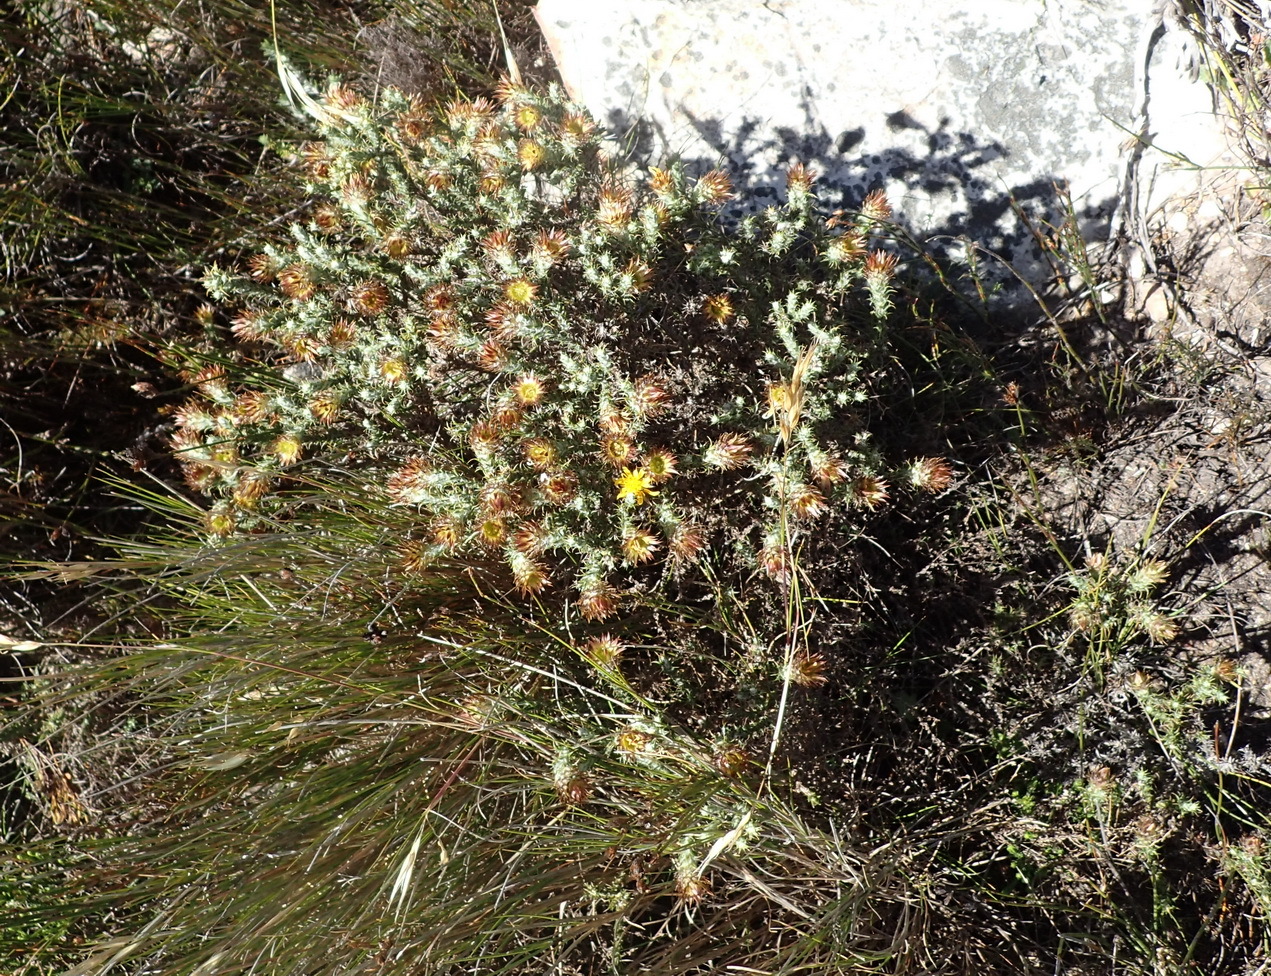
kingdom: Plantae
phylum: Tracheophyta
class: Magnoliopsida
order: Asterales
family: Asteraceae
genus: Cullumia
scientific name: Cullumia bisulca
